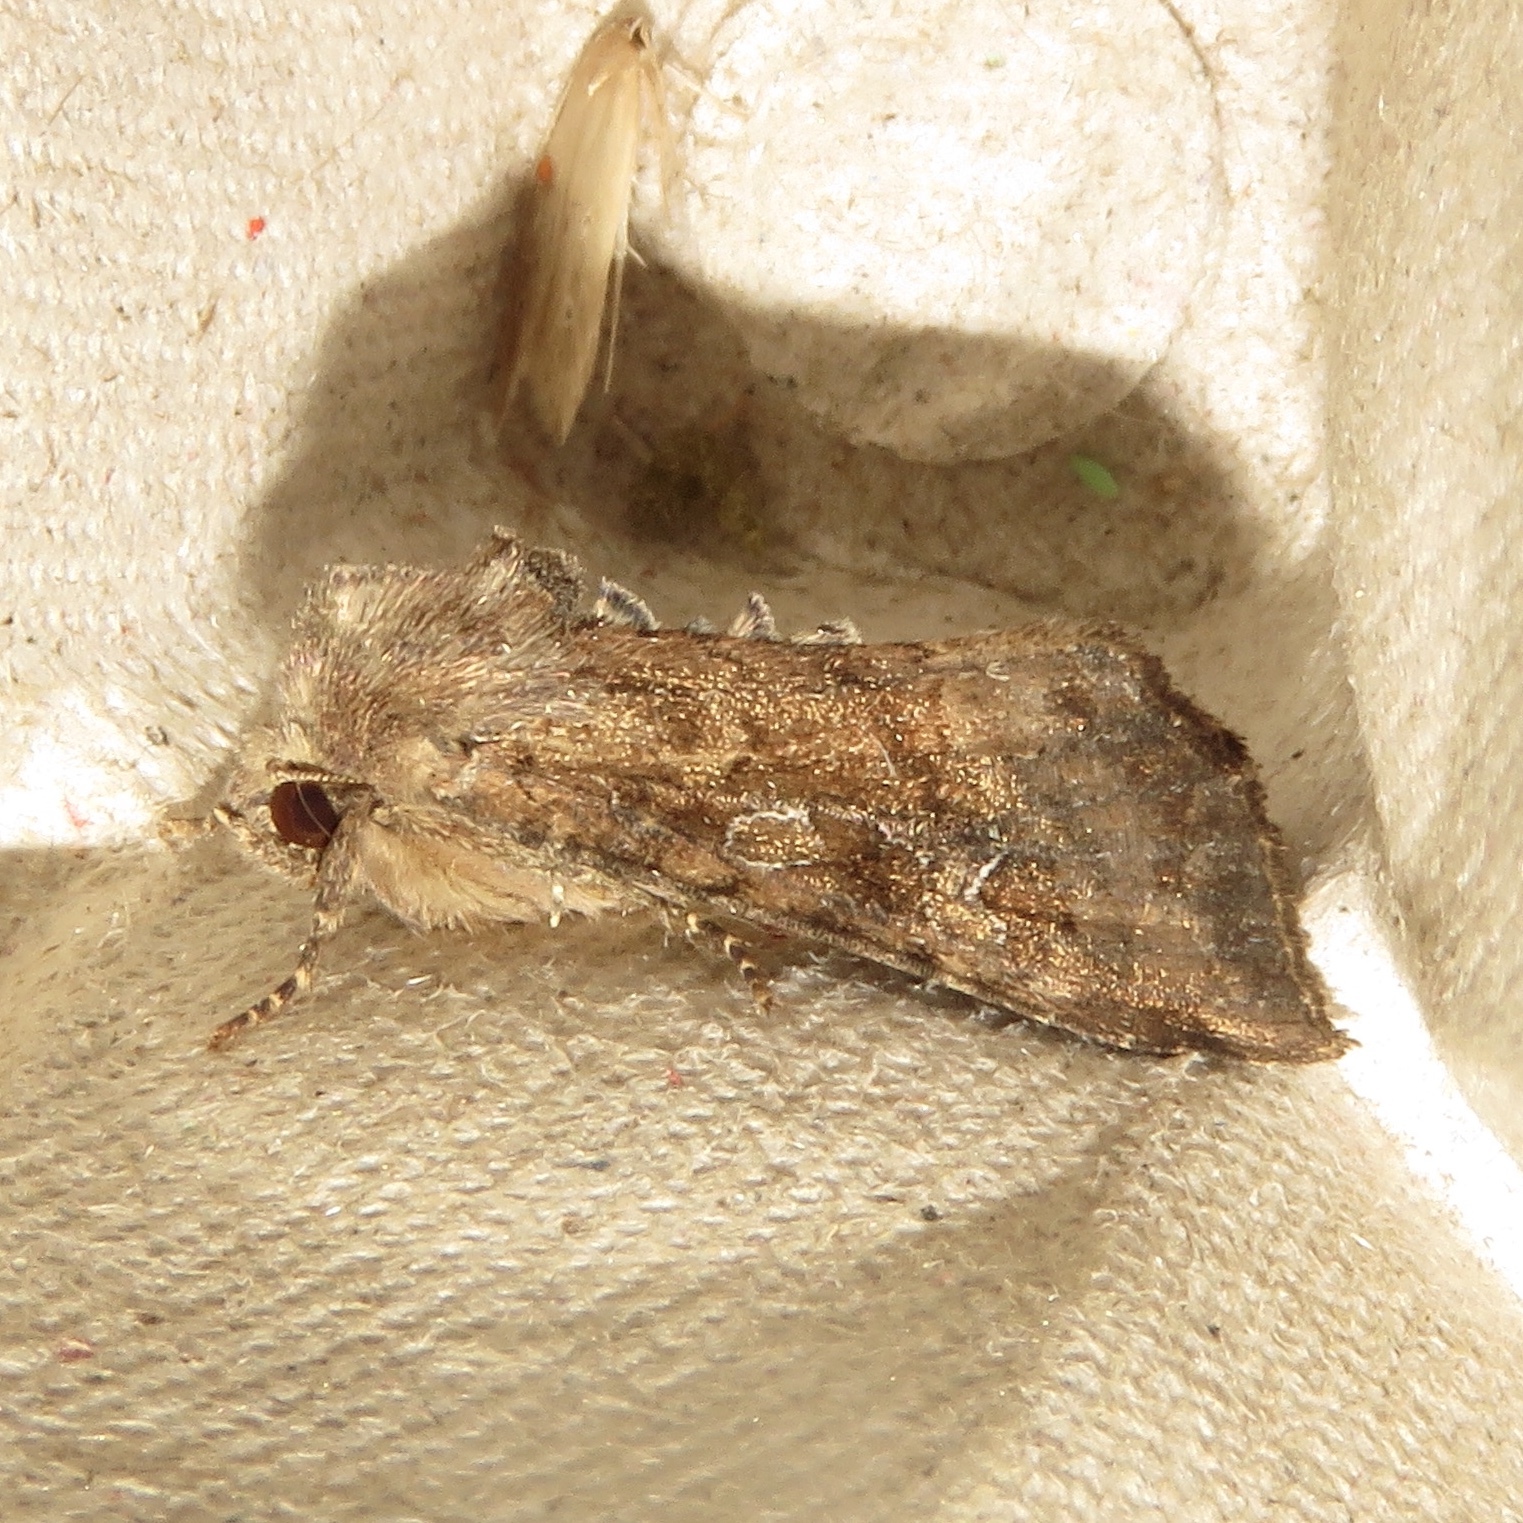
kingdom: Animalia
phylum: Arthropoda
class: Insecta
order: Lepidoptera
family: Noctuidae
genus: Loscopia
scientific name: Loscopia velata
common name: Veiled ear moth
